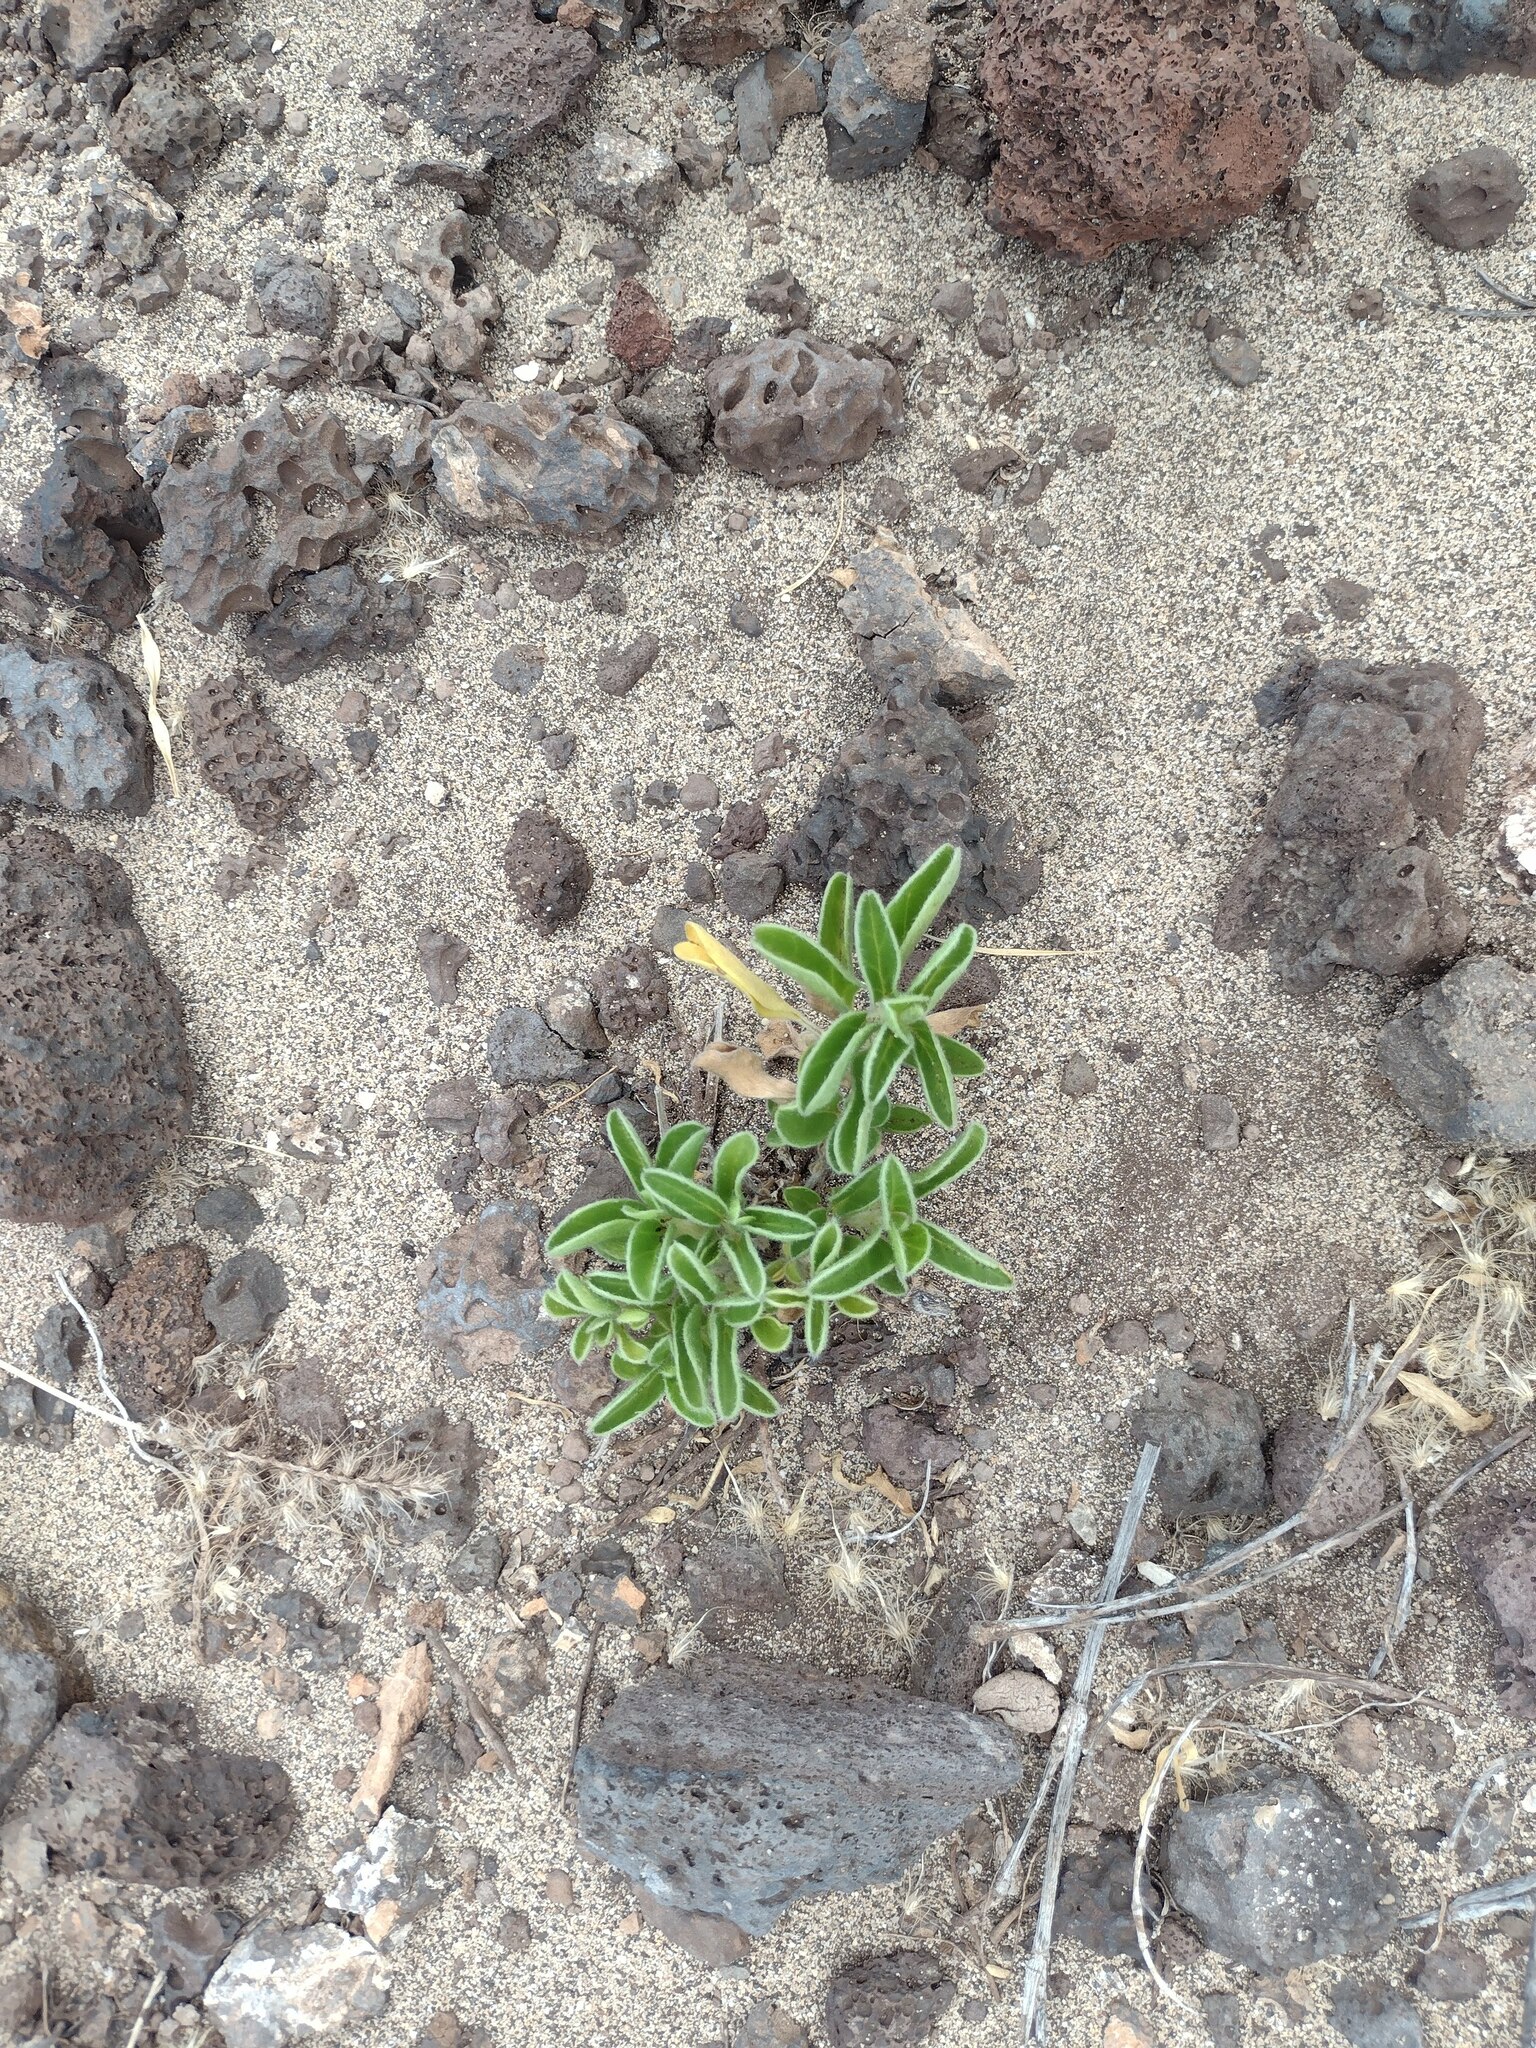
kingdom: Plantae
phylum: Tracheophyta
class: Magnoliopsida
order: Solanales
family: Convolvulaceae
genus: Jacquemontia
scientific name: Jacquemontia sandwicensis
